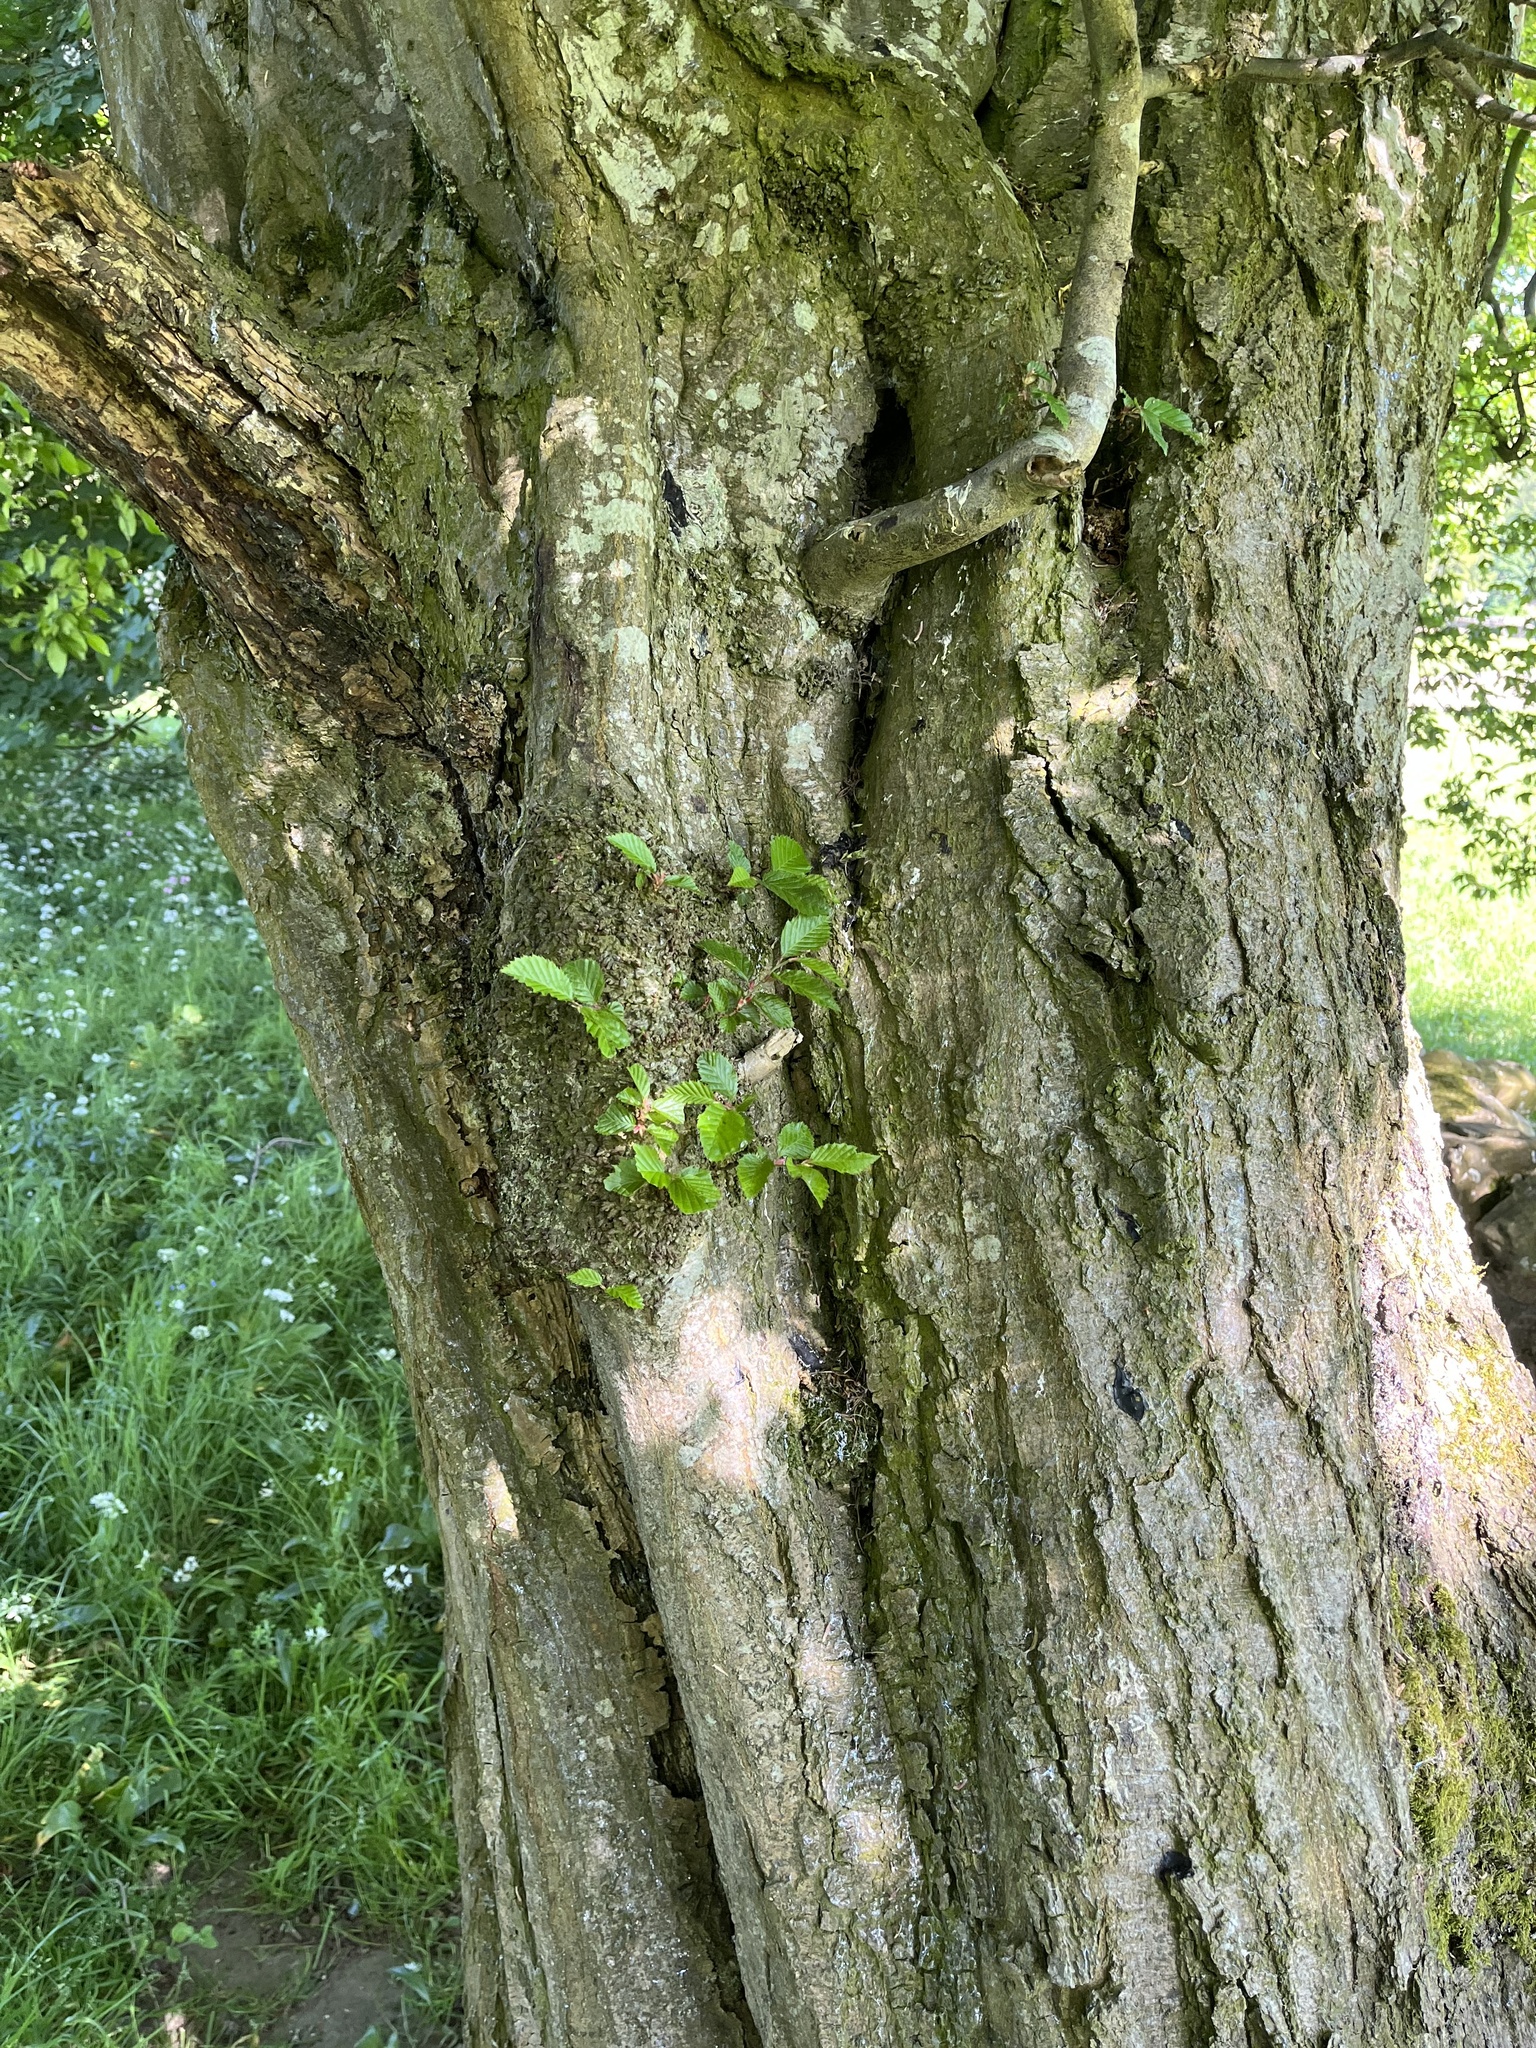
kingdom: Plantae
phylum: Tracheophyta
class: Magnoliopsida
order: Fagales
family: Betulaceae
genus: Carpinus
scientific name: Carpinus betulus
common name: Hornbeam
